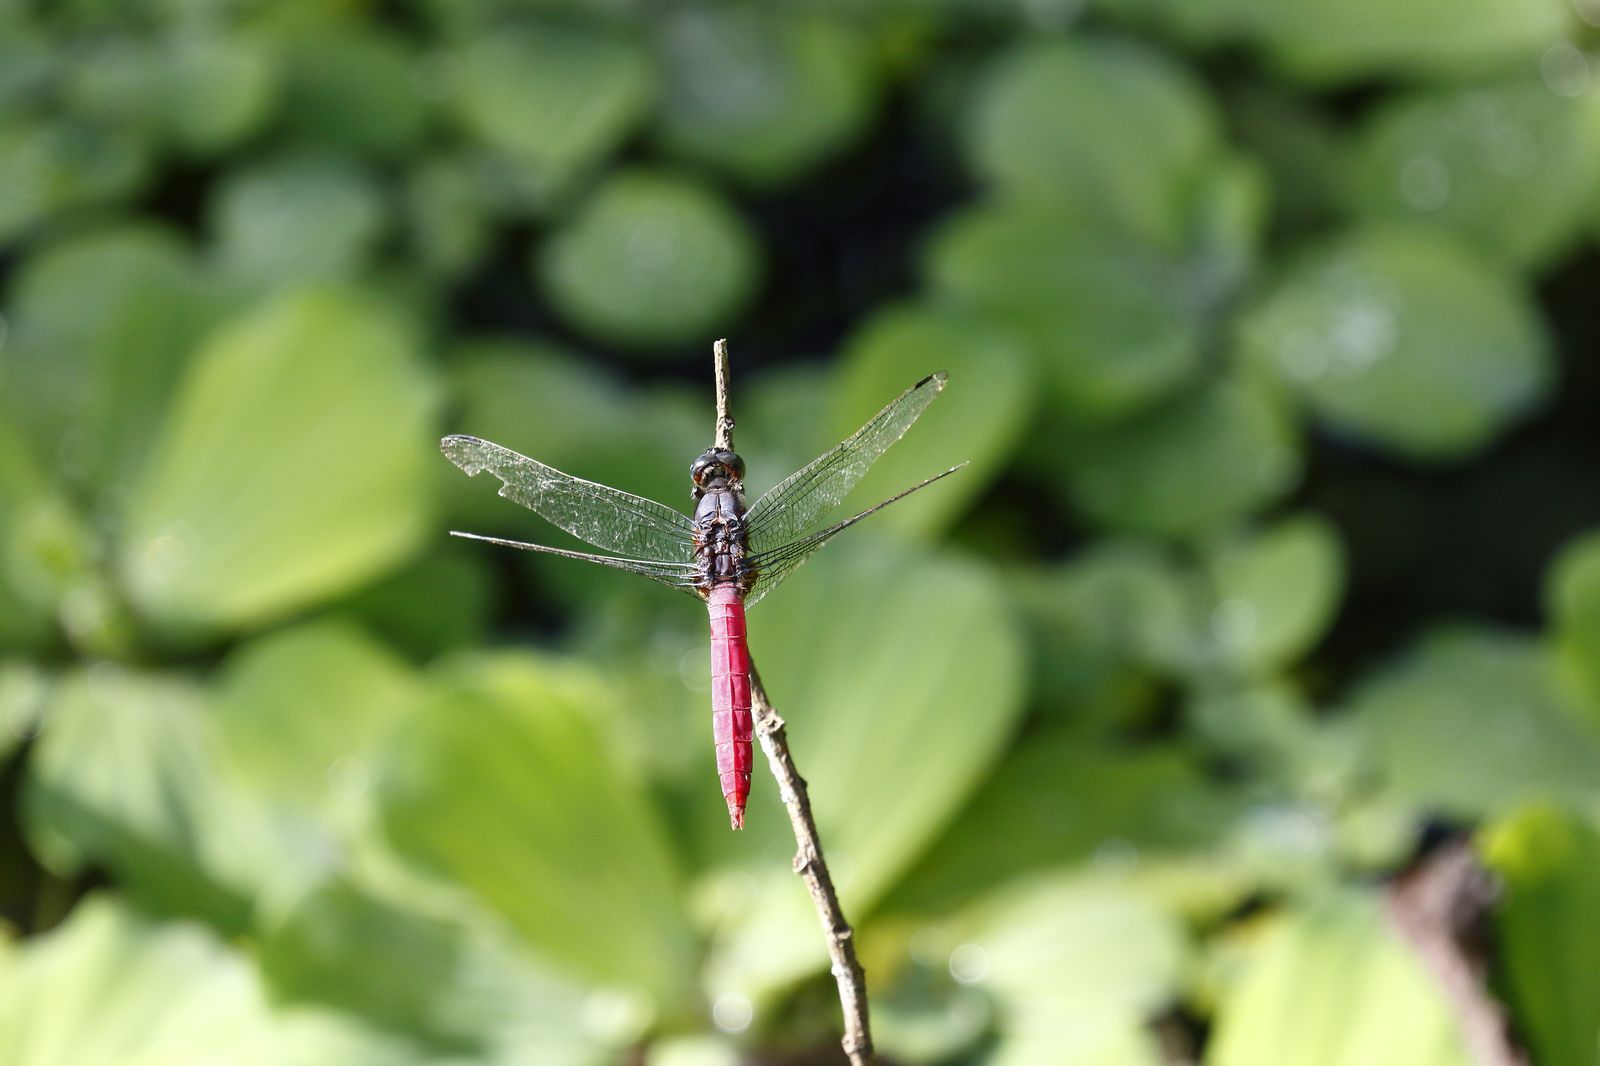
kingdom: Animalia
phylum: Arthropoda
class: Insecta
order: Odonata
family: Libellulidae
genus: Orthetrum
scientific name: Orthetrum pruinosum
